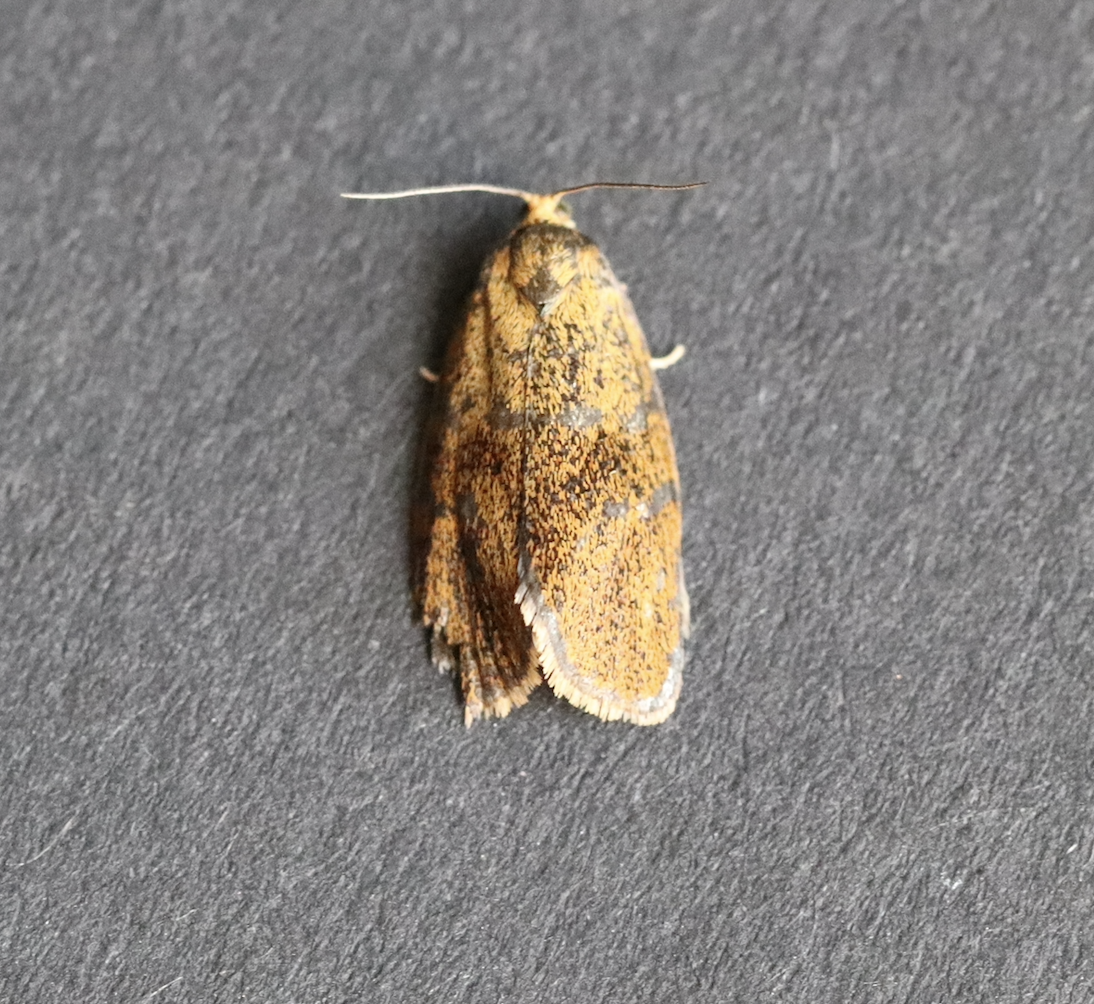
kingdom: Animalia
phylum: Arthropoda
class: Insecta
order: Lepidoptera
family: Tortricidae
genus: Ptycholoma
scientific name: Ptycholoma lecheana
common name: Leches twist moth
